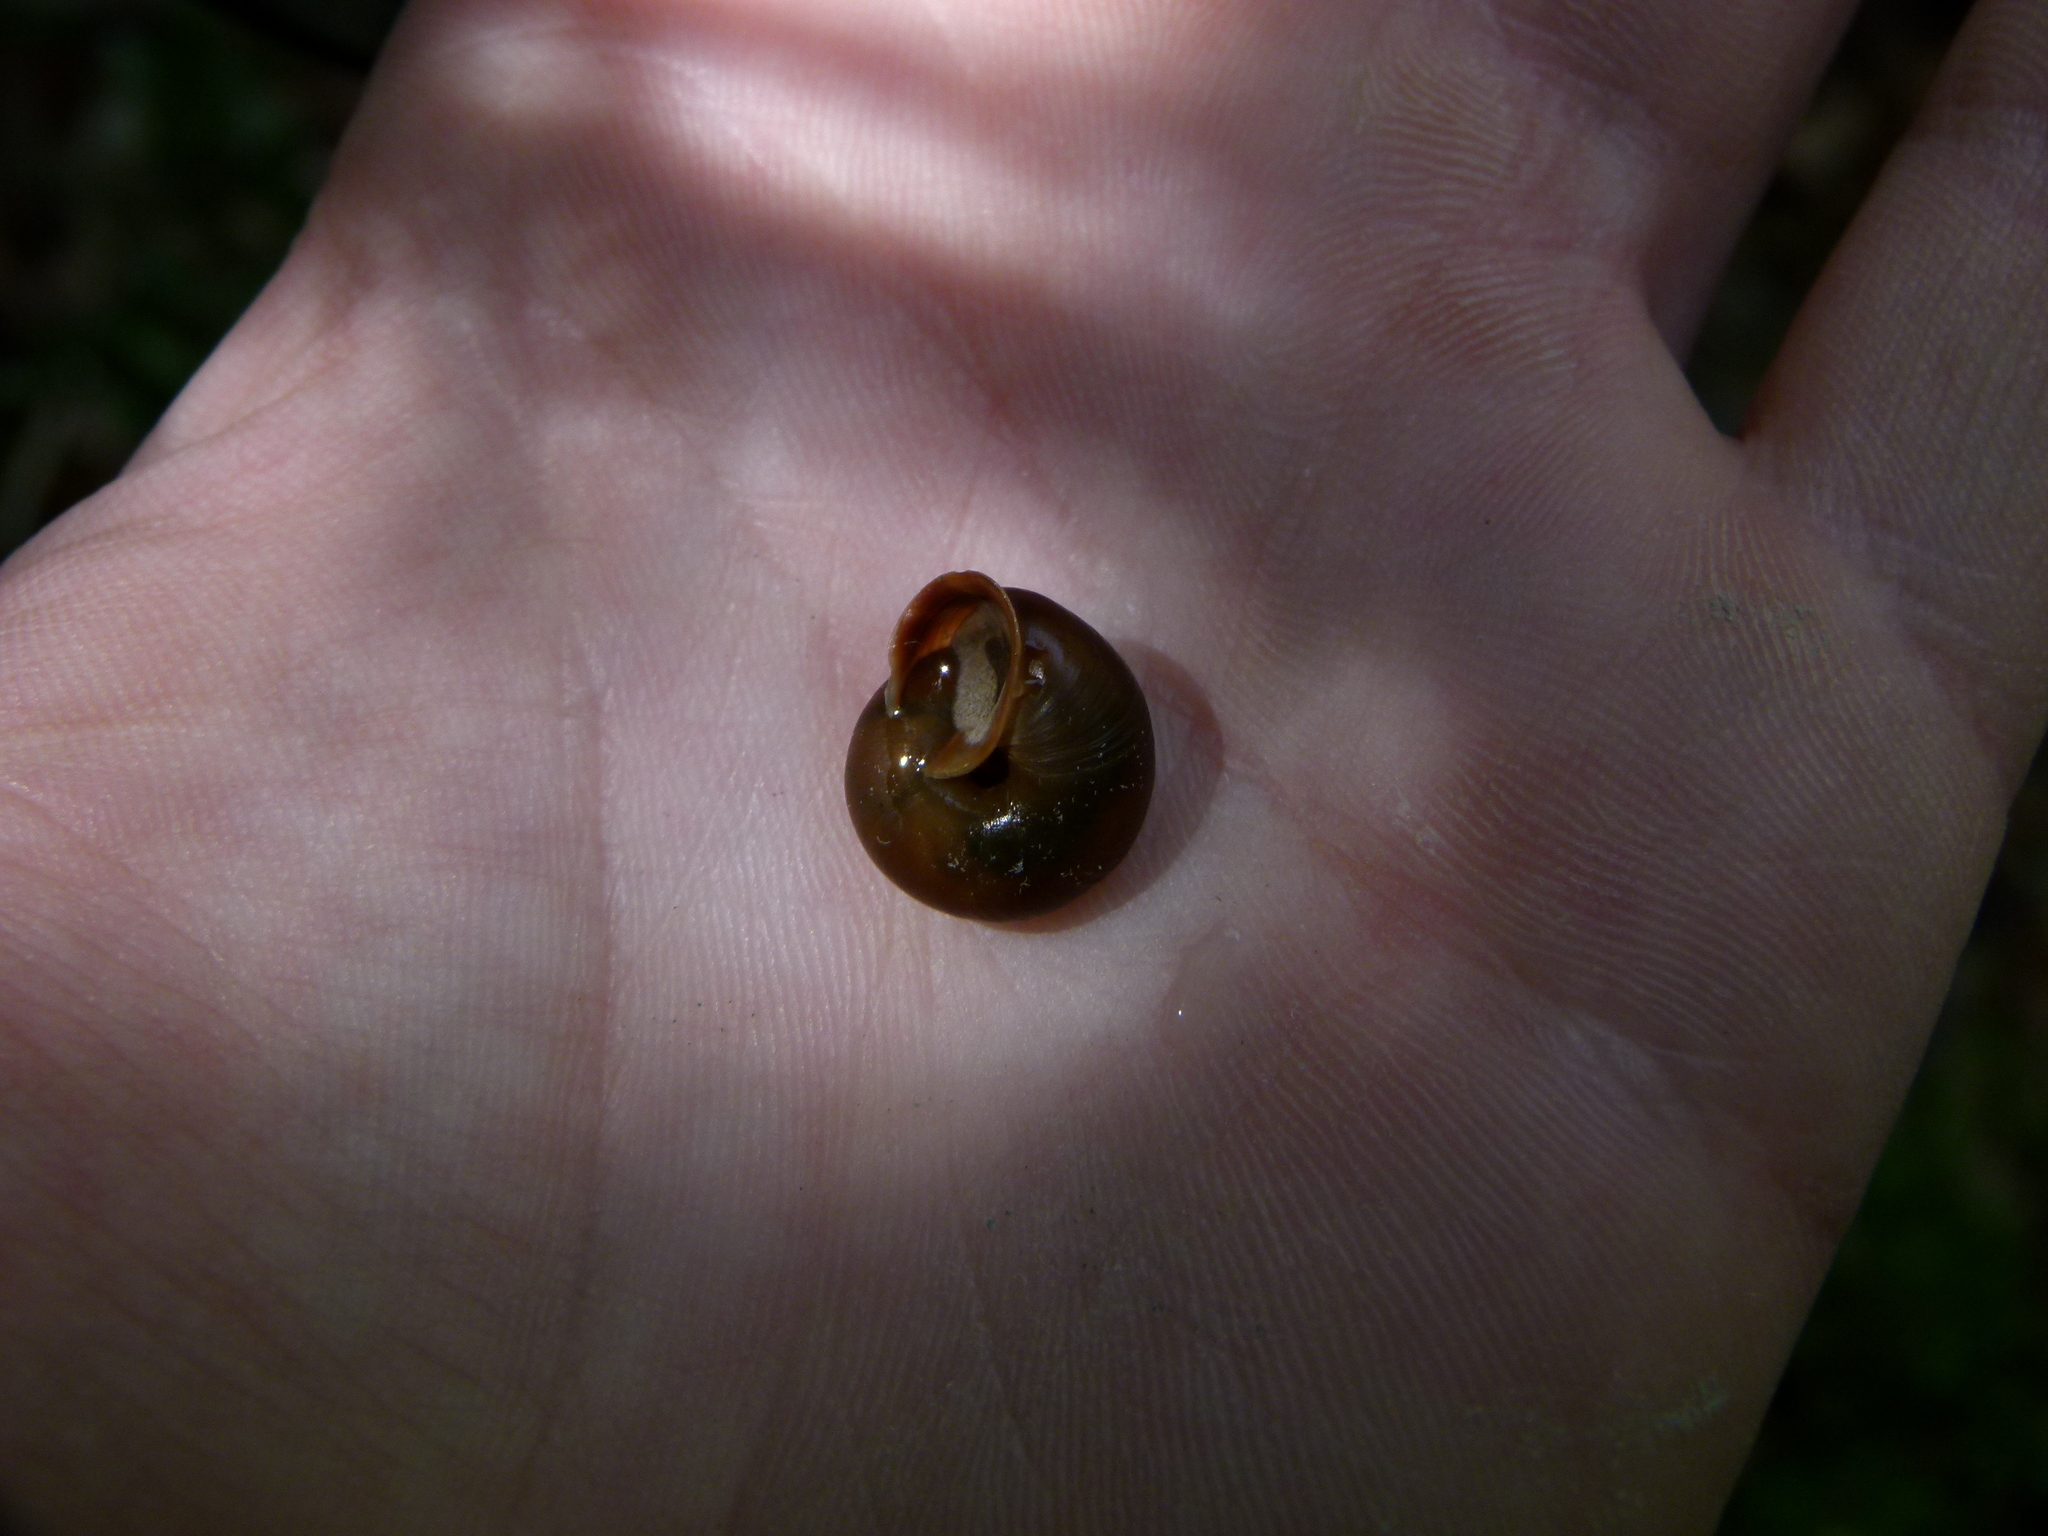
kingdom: Animalia
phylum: Mollusca
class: Gastropoda
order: Stylommatophora
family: Helicidae
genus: Corneola
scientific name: Corneola squamatina
